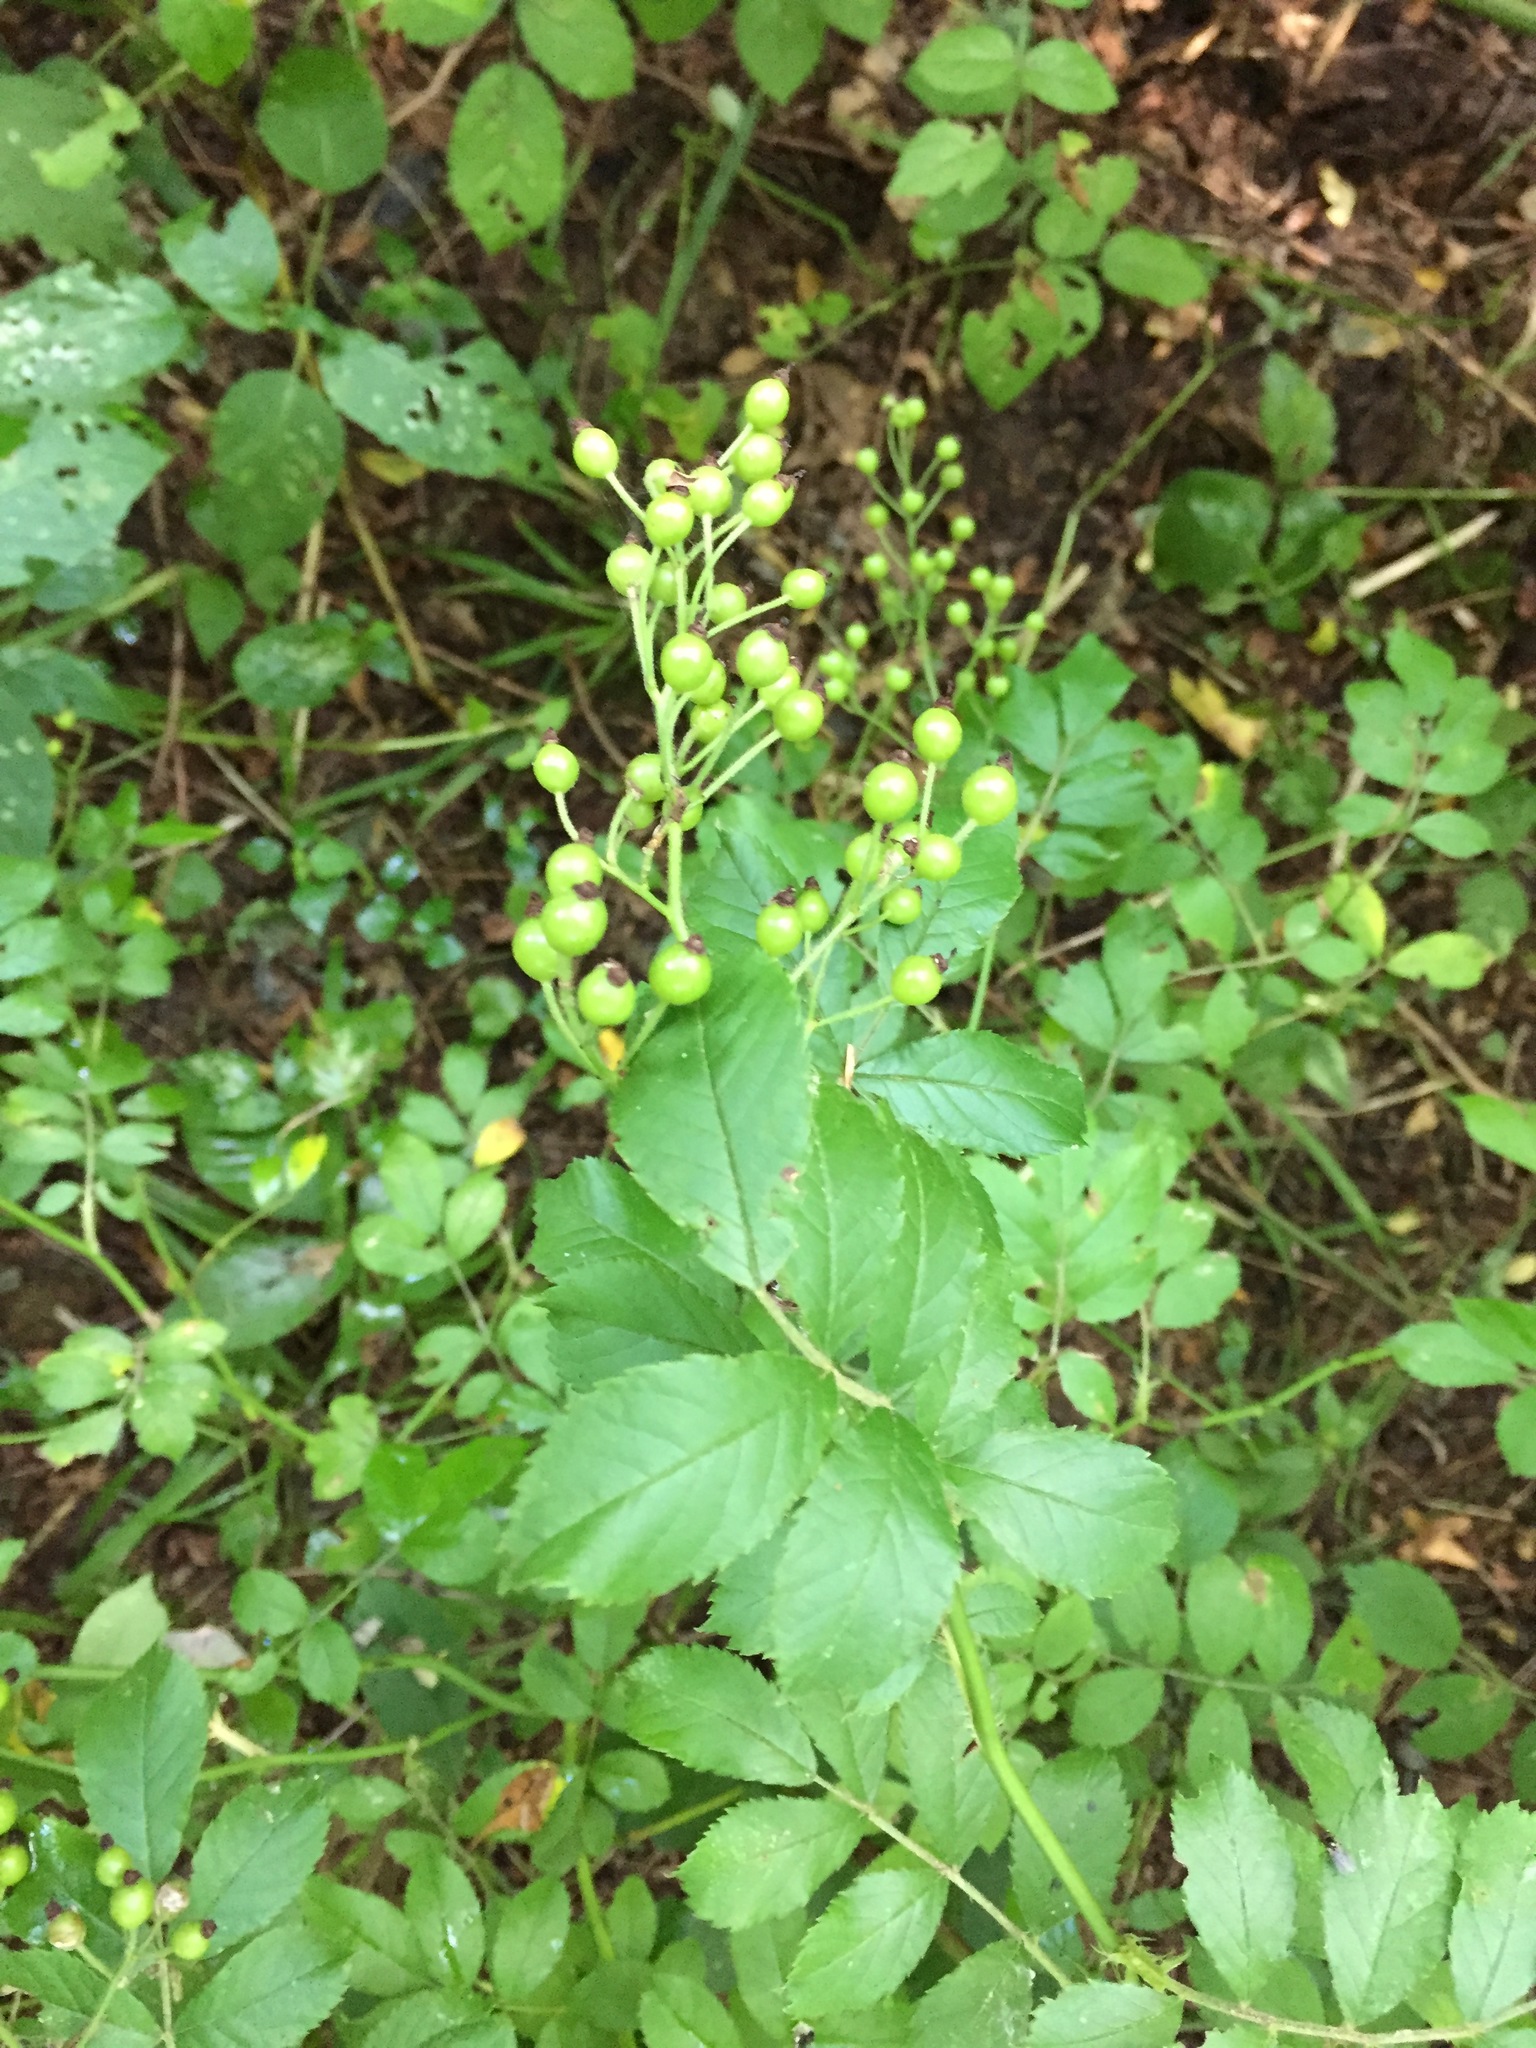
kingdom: Plantae
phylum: Tracheophyta
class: Magnoliopsida
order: Rosales
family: Rosaceae
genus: Rosa
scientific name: Rosa multiflora
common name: Multiflora rose
